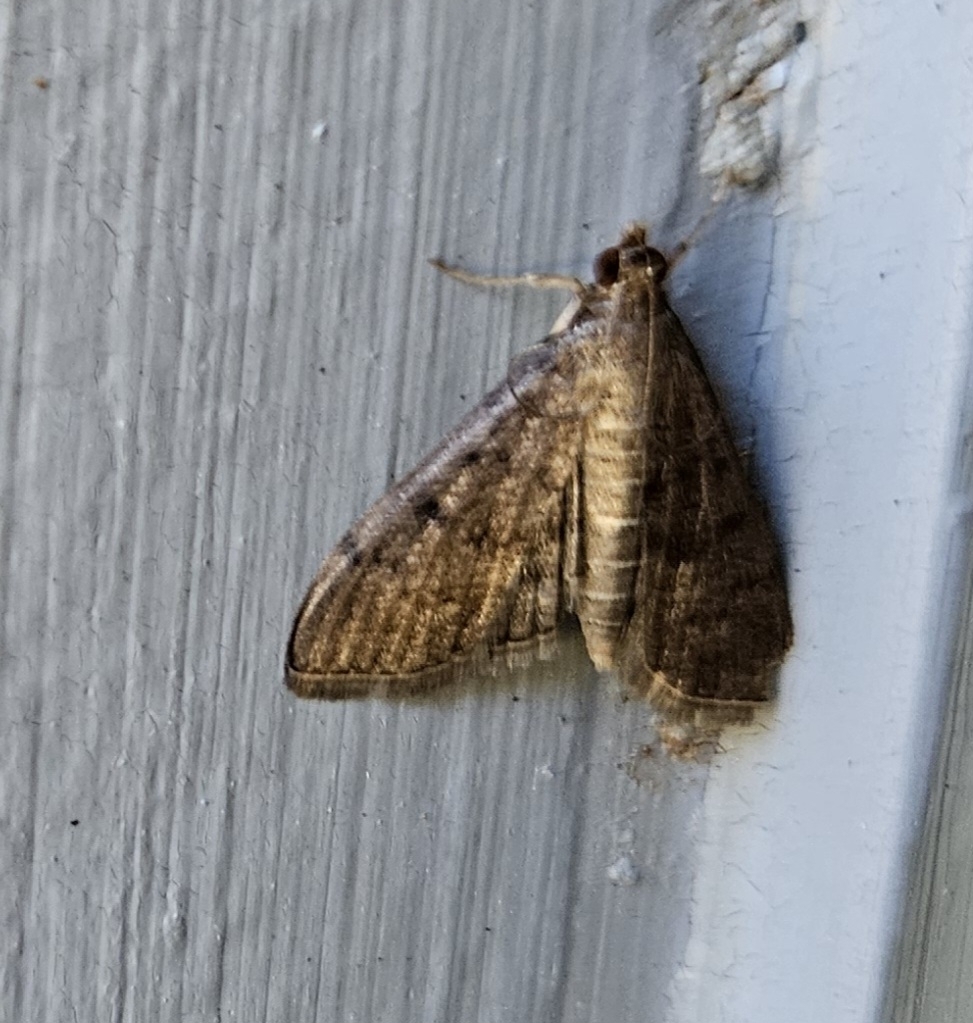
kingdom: Animalia
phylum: Arthropoda
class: Insecta
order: Lepidoptera
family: Crambidae
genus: Herpetogramma
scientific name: Herpetogramma phaeopteralis
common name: Dusky herpetogramma moth
